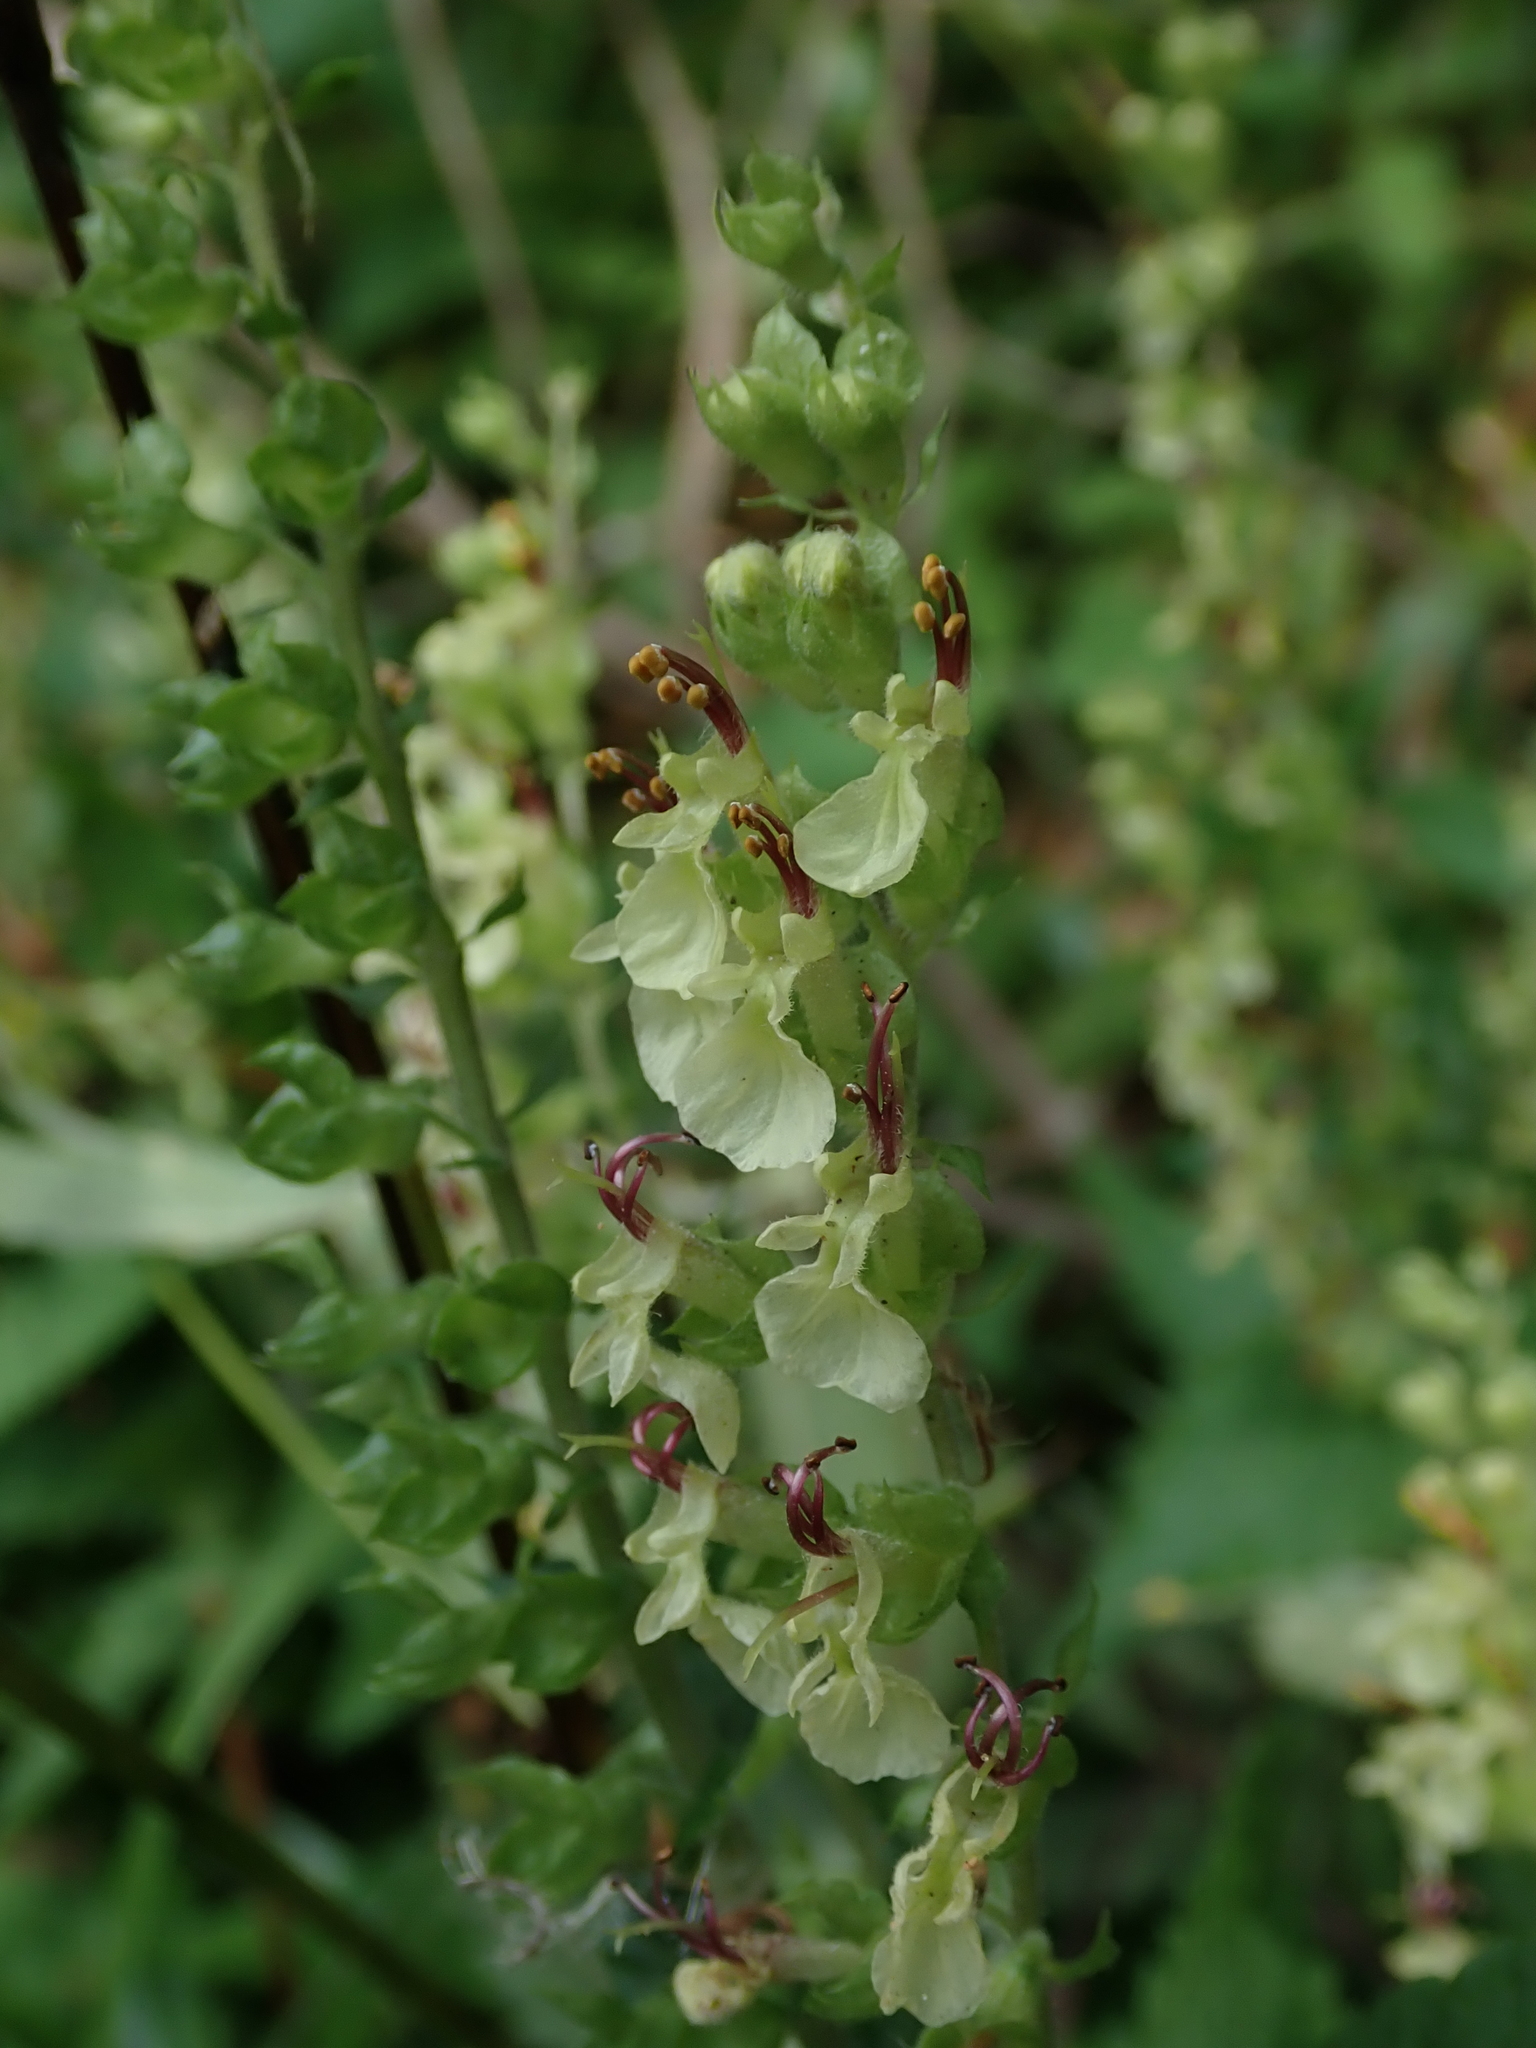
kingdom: Plantae
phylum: Tracheophyta
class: Magnoliopsida
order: Lamiales
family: Lamiaceae
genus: Teucrium
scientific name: Teucrium scorodonia
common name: Woodland germander
